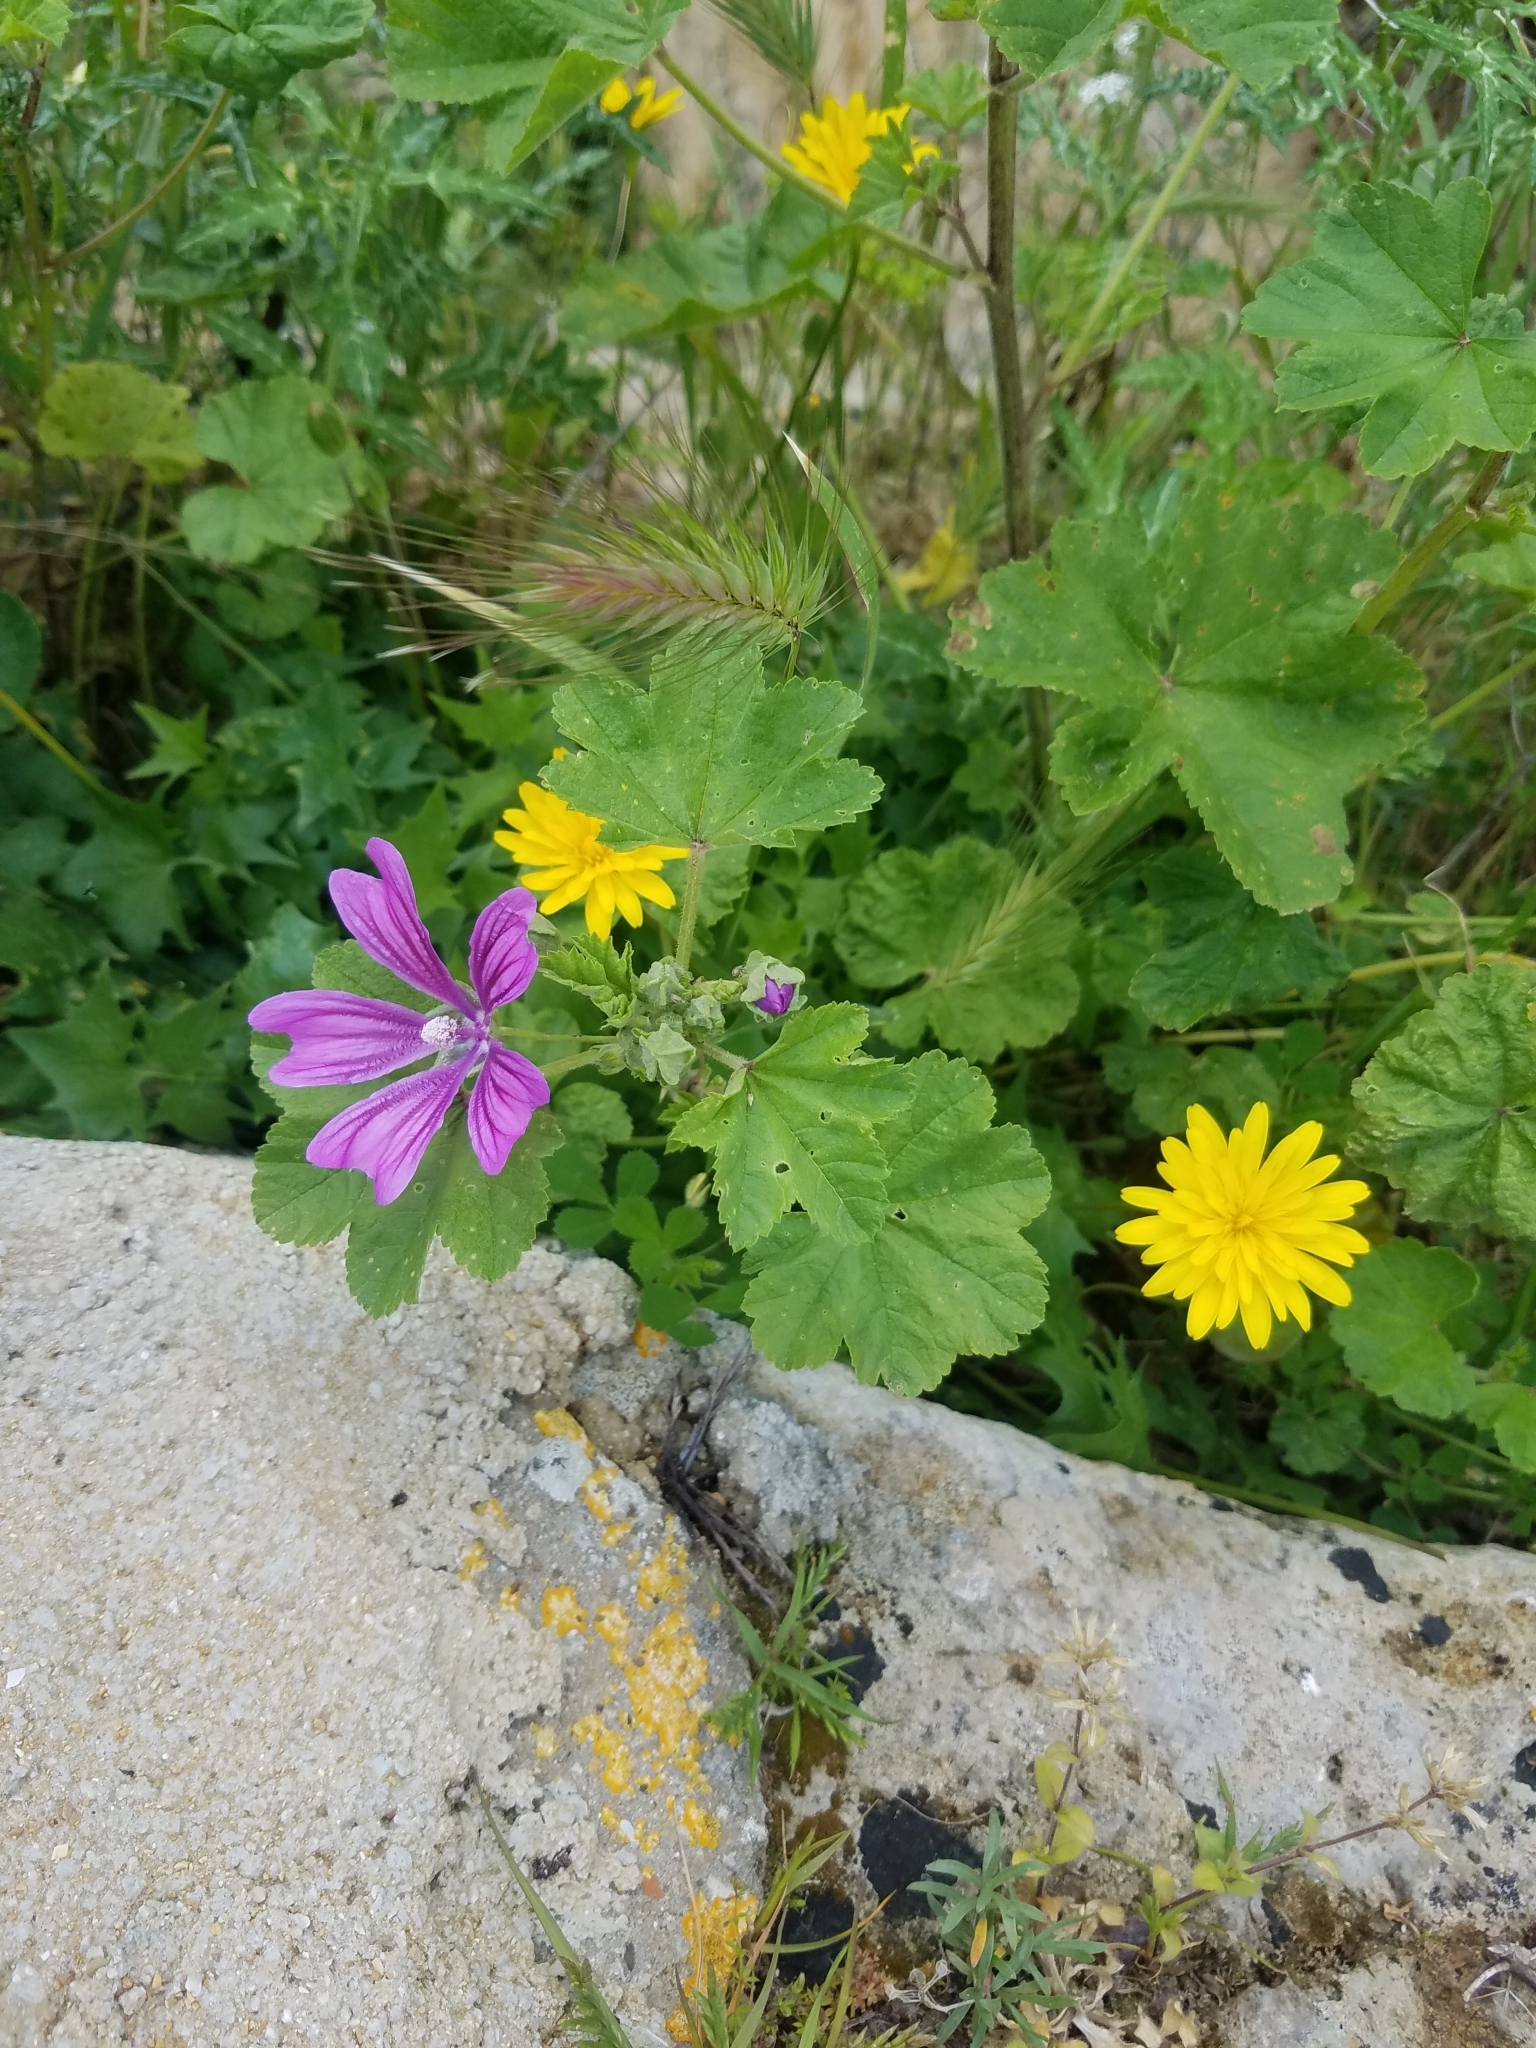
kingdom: Plantae
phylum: Tracheophyta
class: Magnoliopsida
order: Malvales
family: Malvaceae
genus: Malva
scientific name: Malva sylvestris
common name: Common mallow
